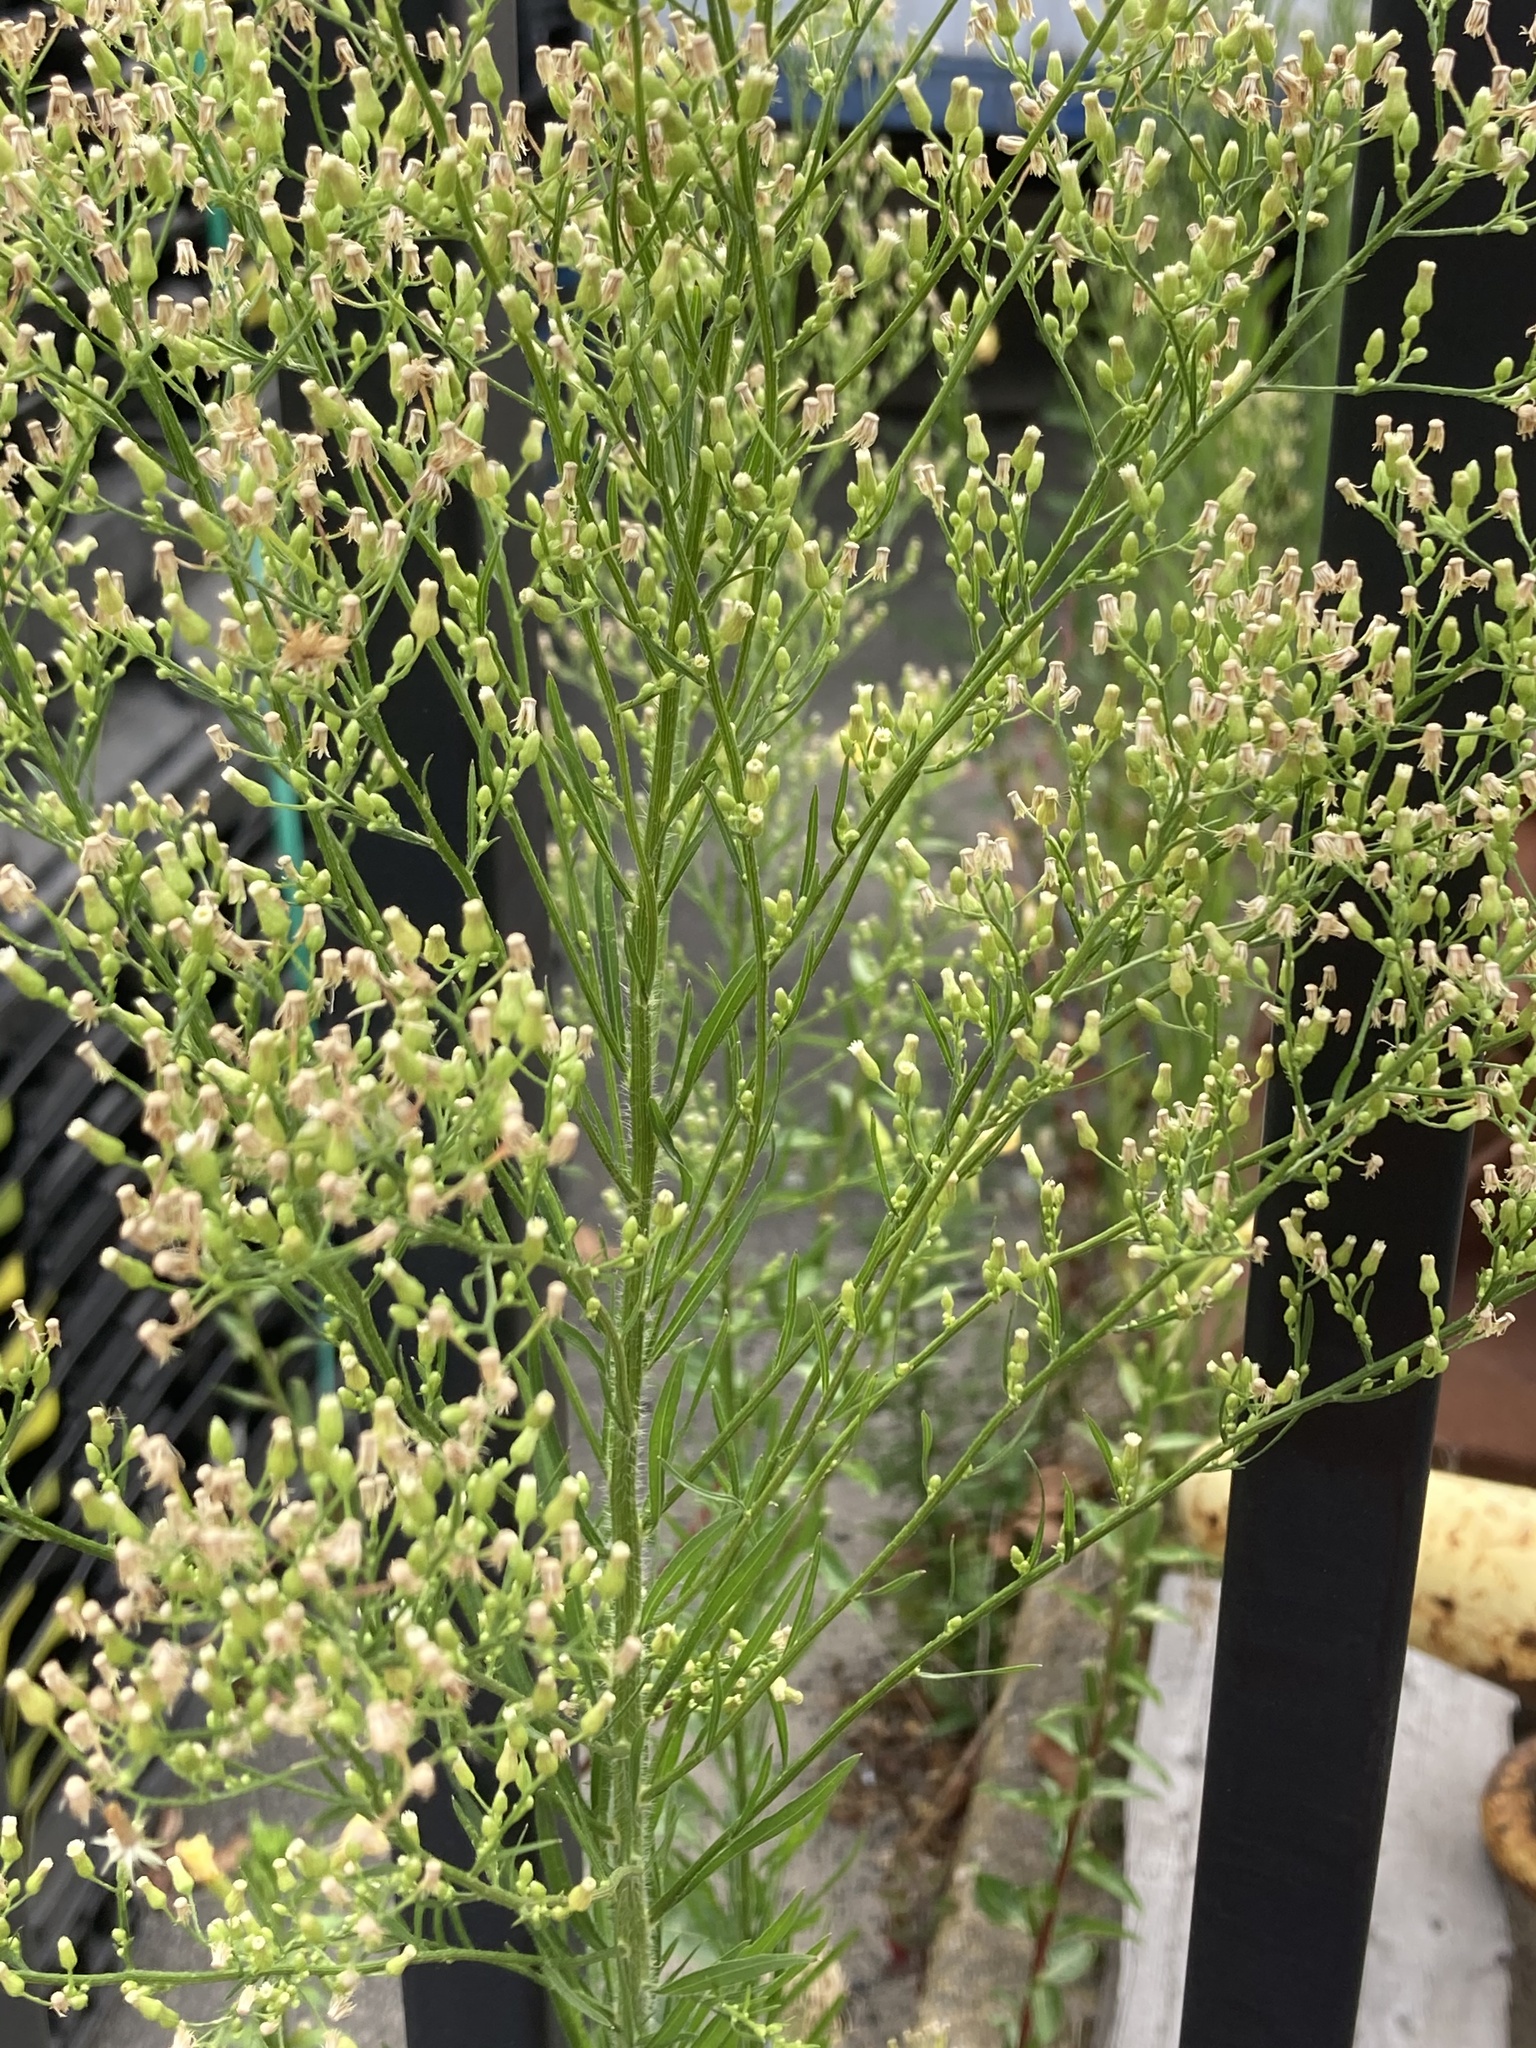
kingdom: Plantae
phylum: Tracheophyta
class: Magnoliopsida
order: Asterales
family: Asteraceae
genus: Erigeron
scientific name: Erigeron canadensis
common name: Canadian fleabane
